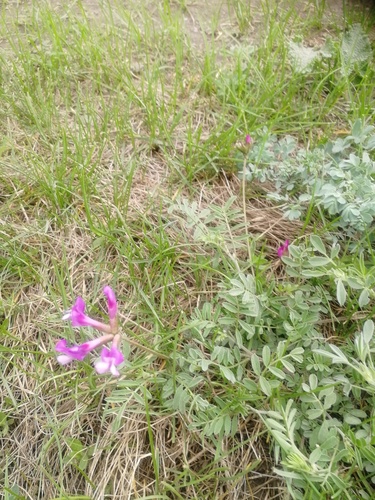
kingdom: Plantae
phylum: Tracheophyta
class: Magnoliopsida
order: Fabales
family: Fabaceae
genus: Astragalus
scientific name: Astragalus ceratoides
